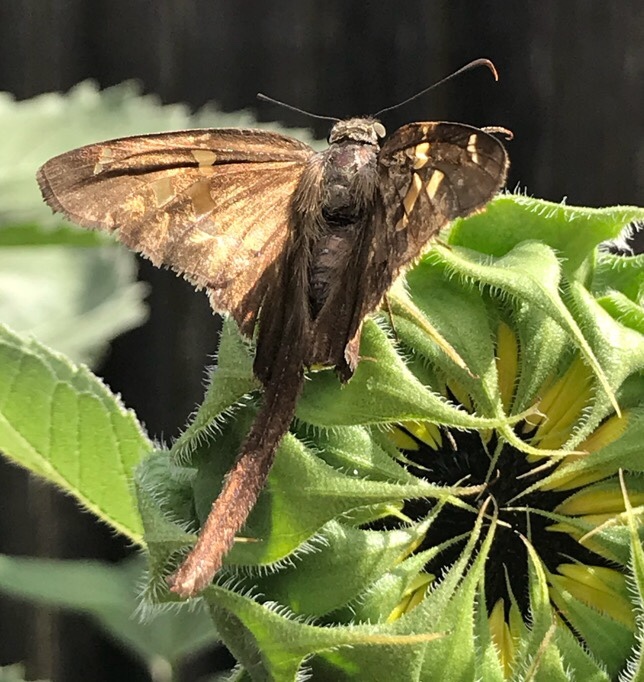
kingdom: Animalia
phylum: Arthropoda
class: Insecta
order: Lepidoptera
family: Hesperiidae
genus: Chioides
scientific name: Chioides catillus
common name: Silverbanded skipper
